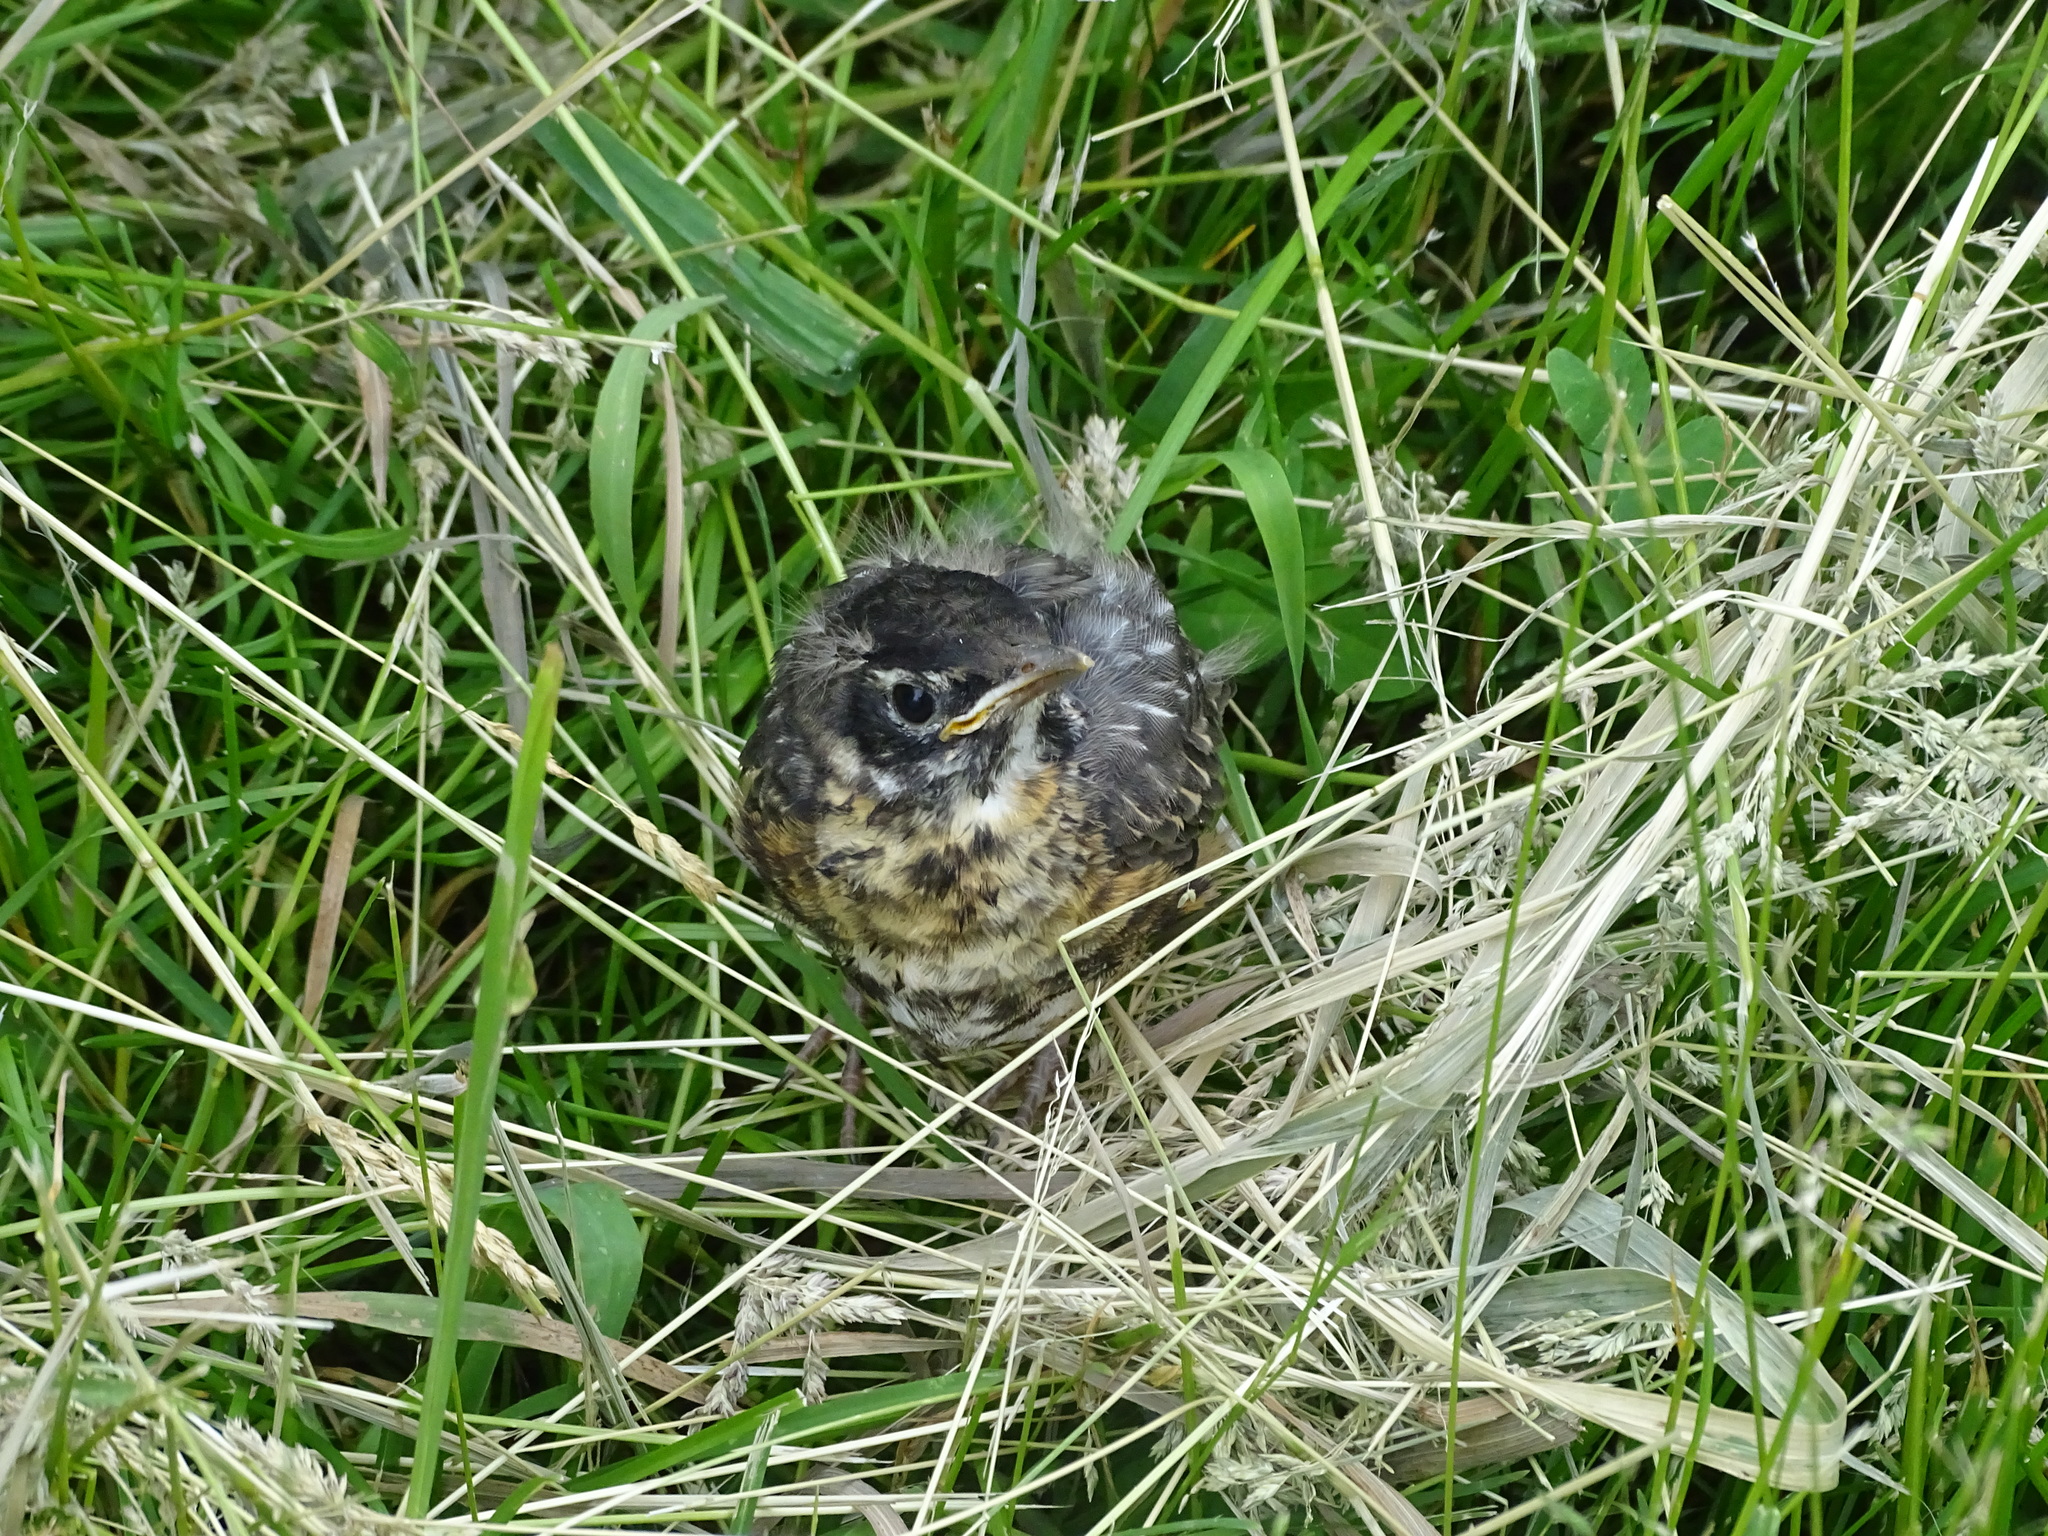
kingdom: Animalia
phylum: Chordata
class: Aves
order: Passeriformes
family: Turdidae
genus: Turdus
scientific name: Turdus migratorius
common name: American robin
